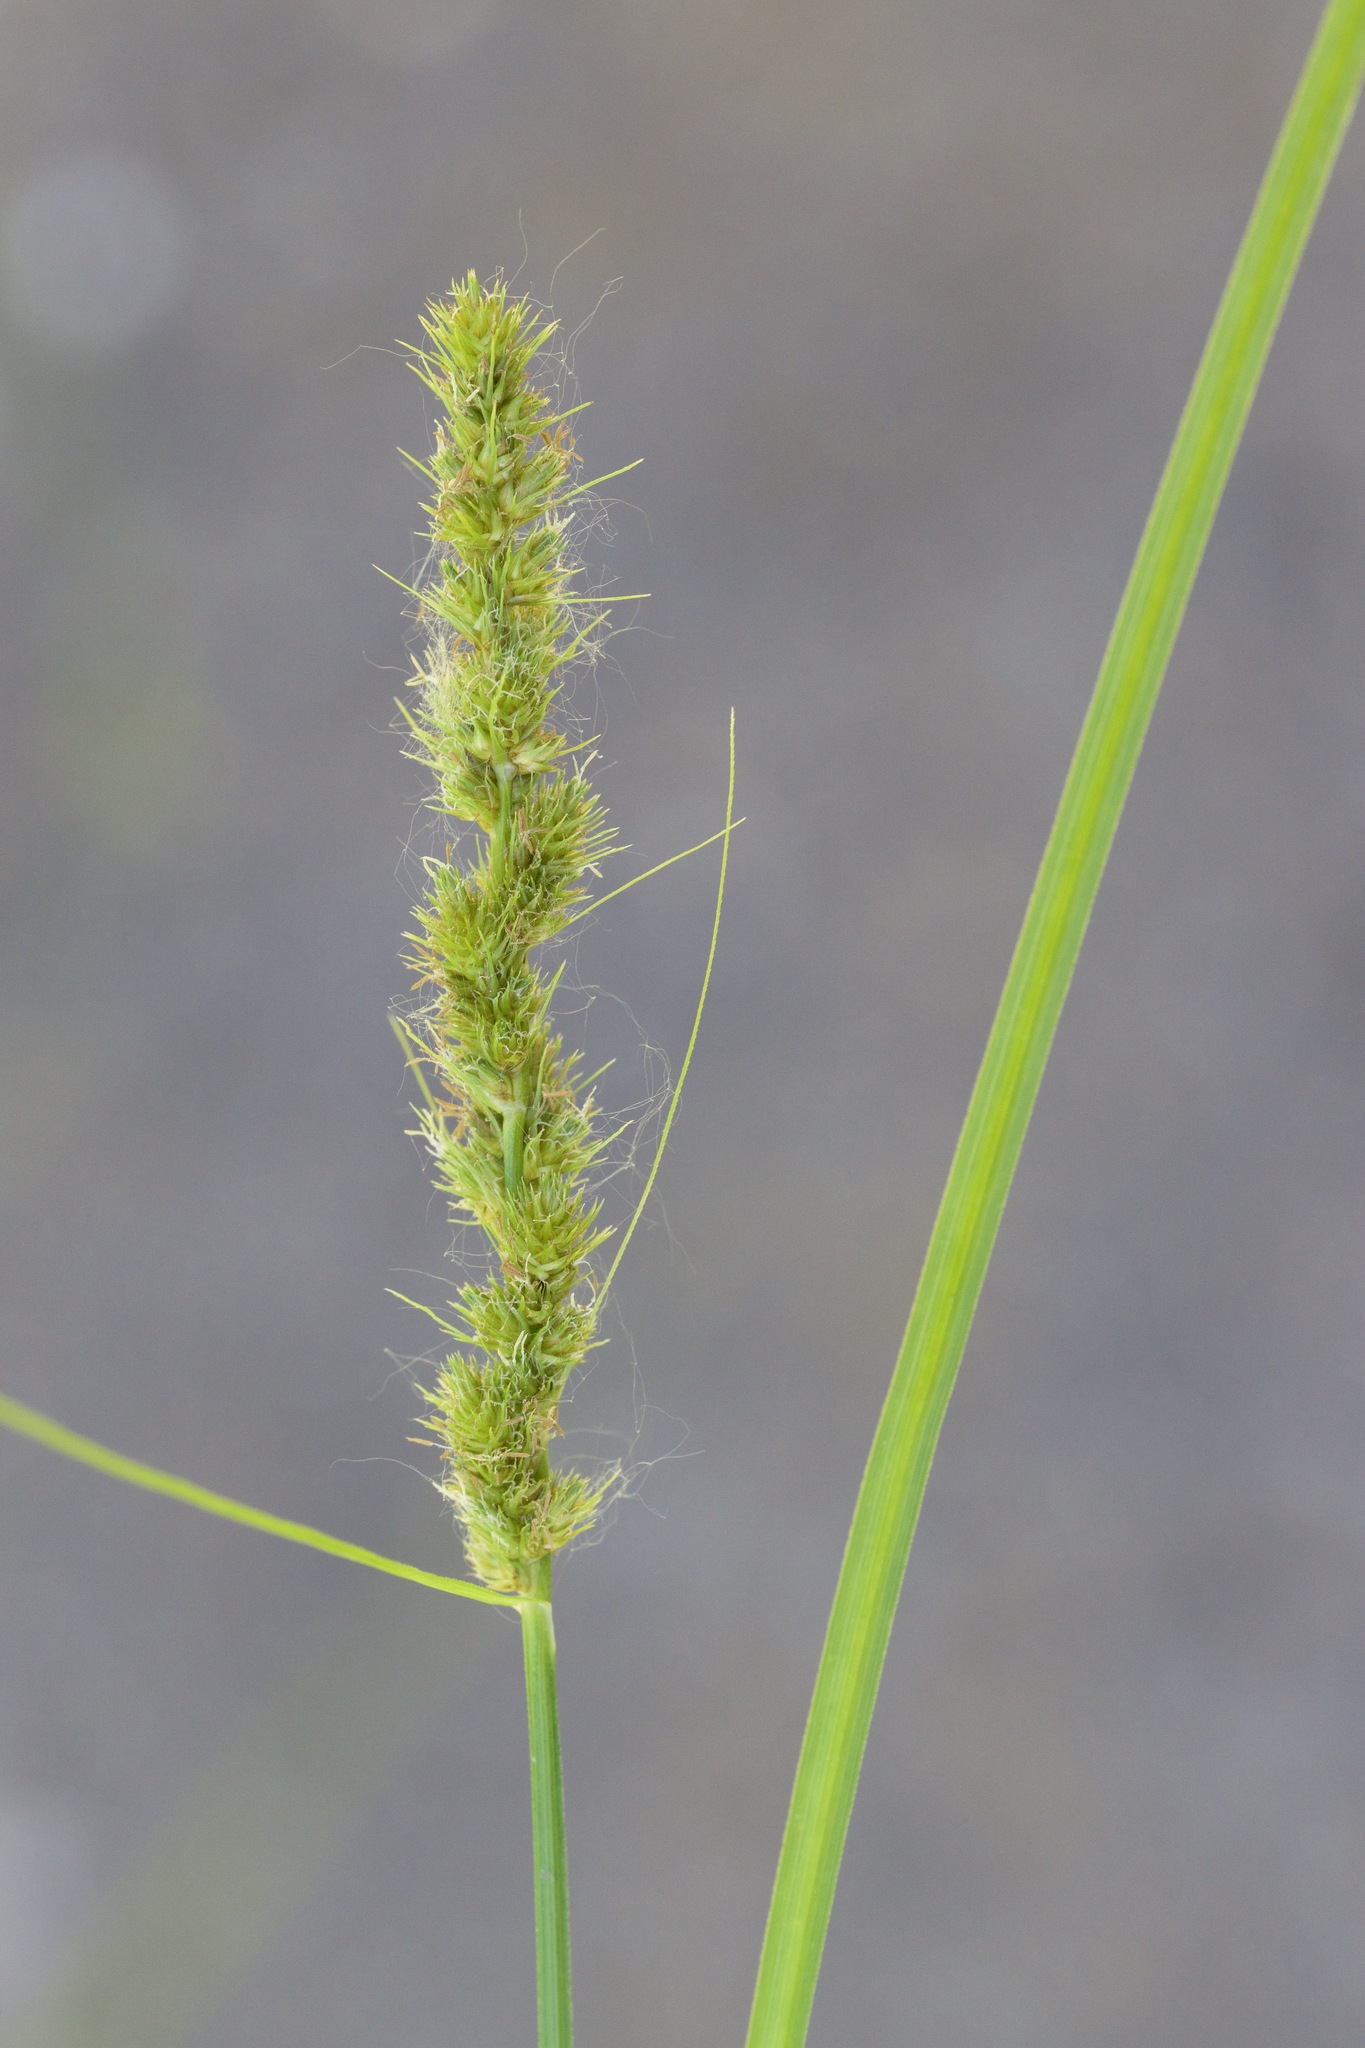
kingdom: Plantae
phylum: Tracheophyta
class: Liliopsida
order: Poales
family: Cyperaceae
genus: Carex
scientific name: Carex vulpinoidea
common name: American fox-sedge
